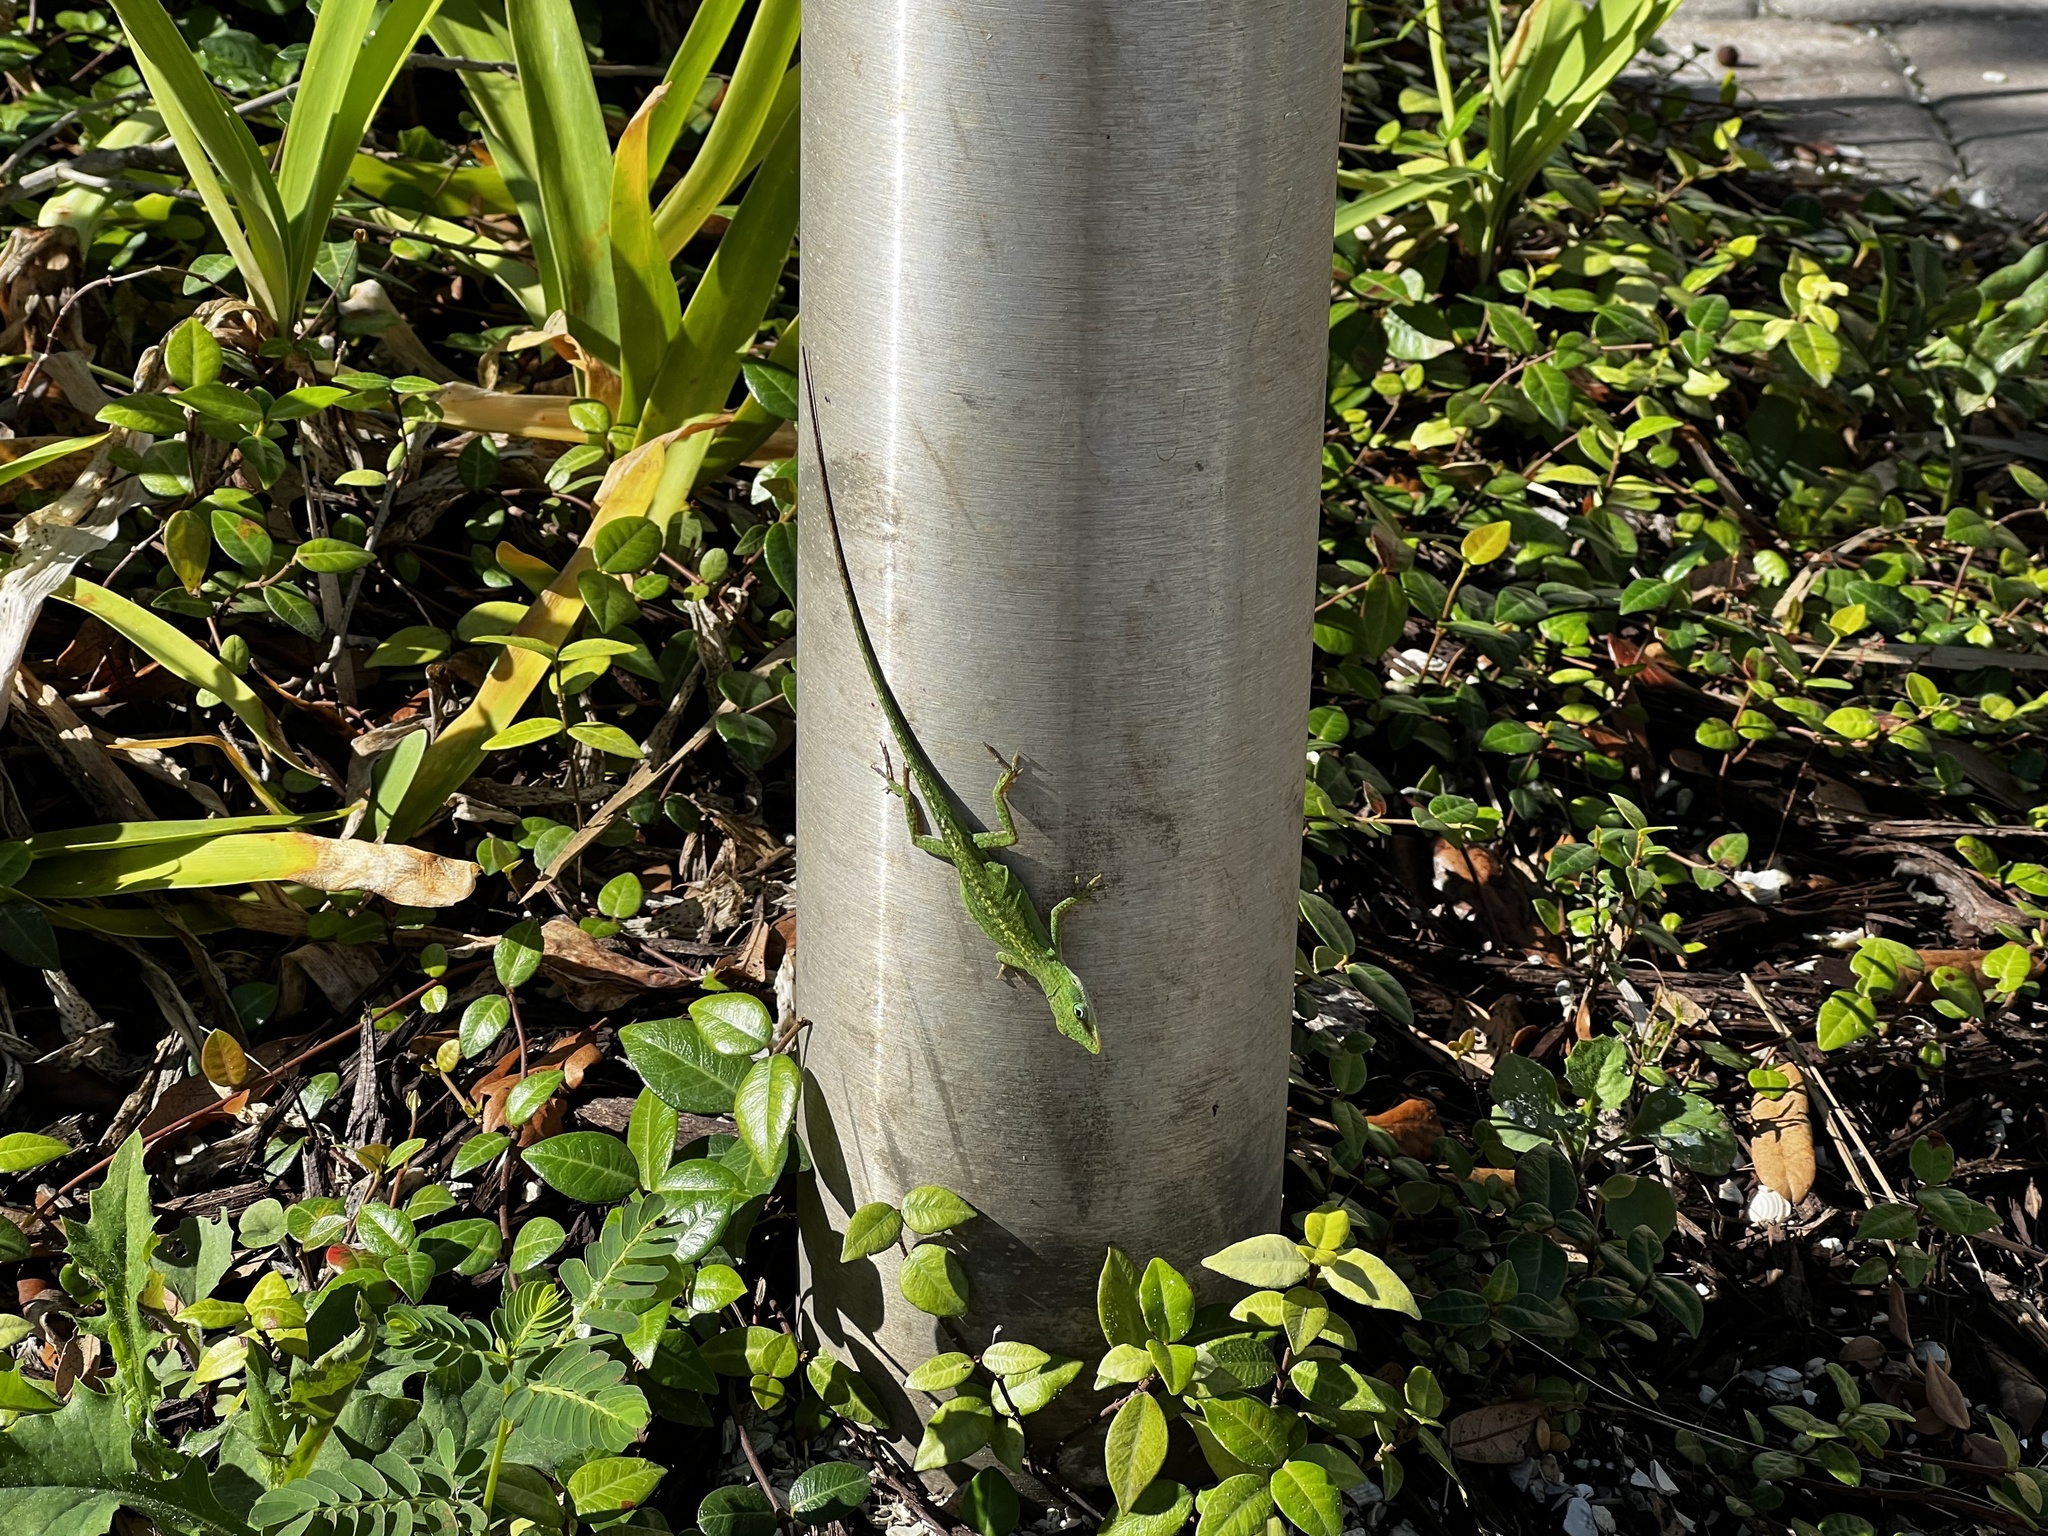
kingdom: Animalia
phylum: Chordata
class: Squamata
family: Dactyloidae
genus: Anolis
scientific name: Anolis carolinensis
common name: Green anole
